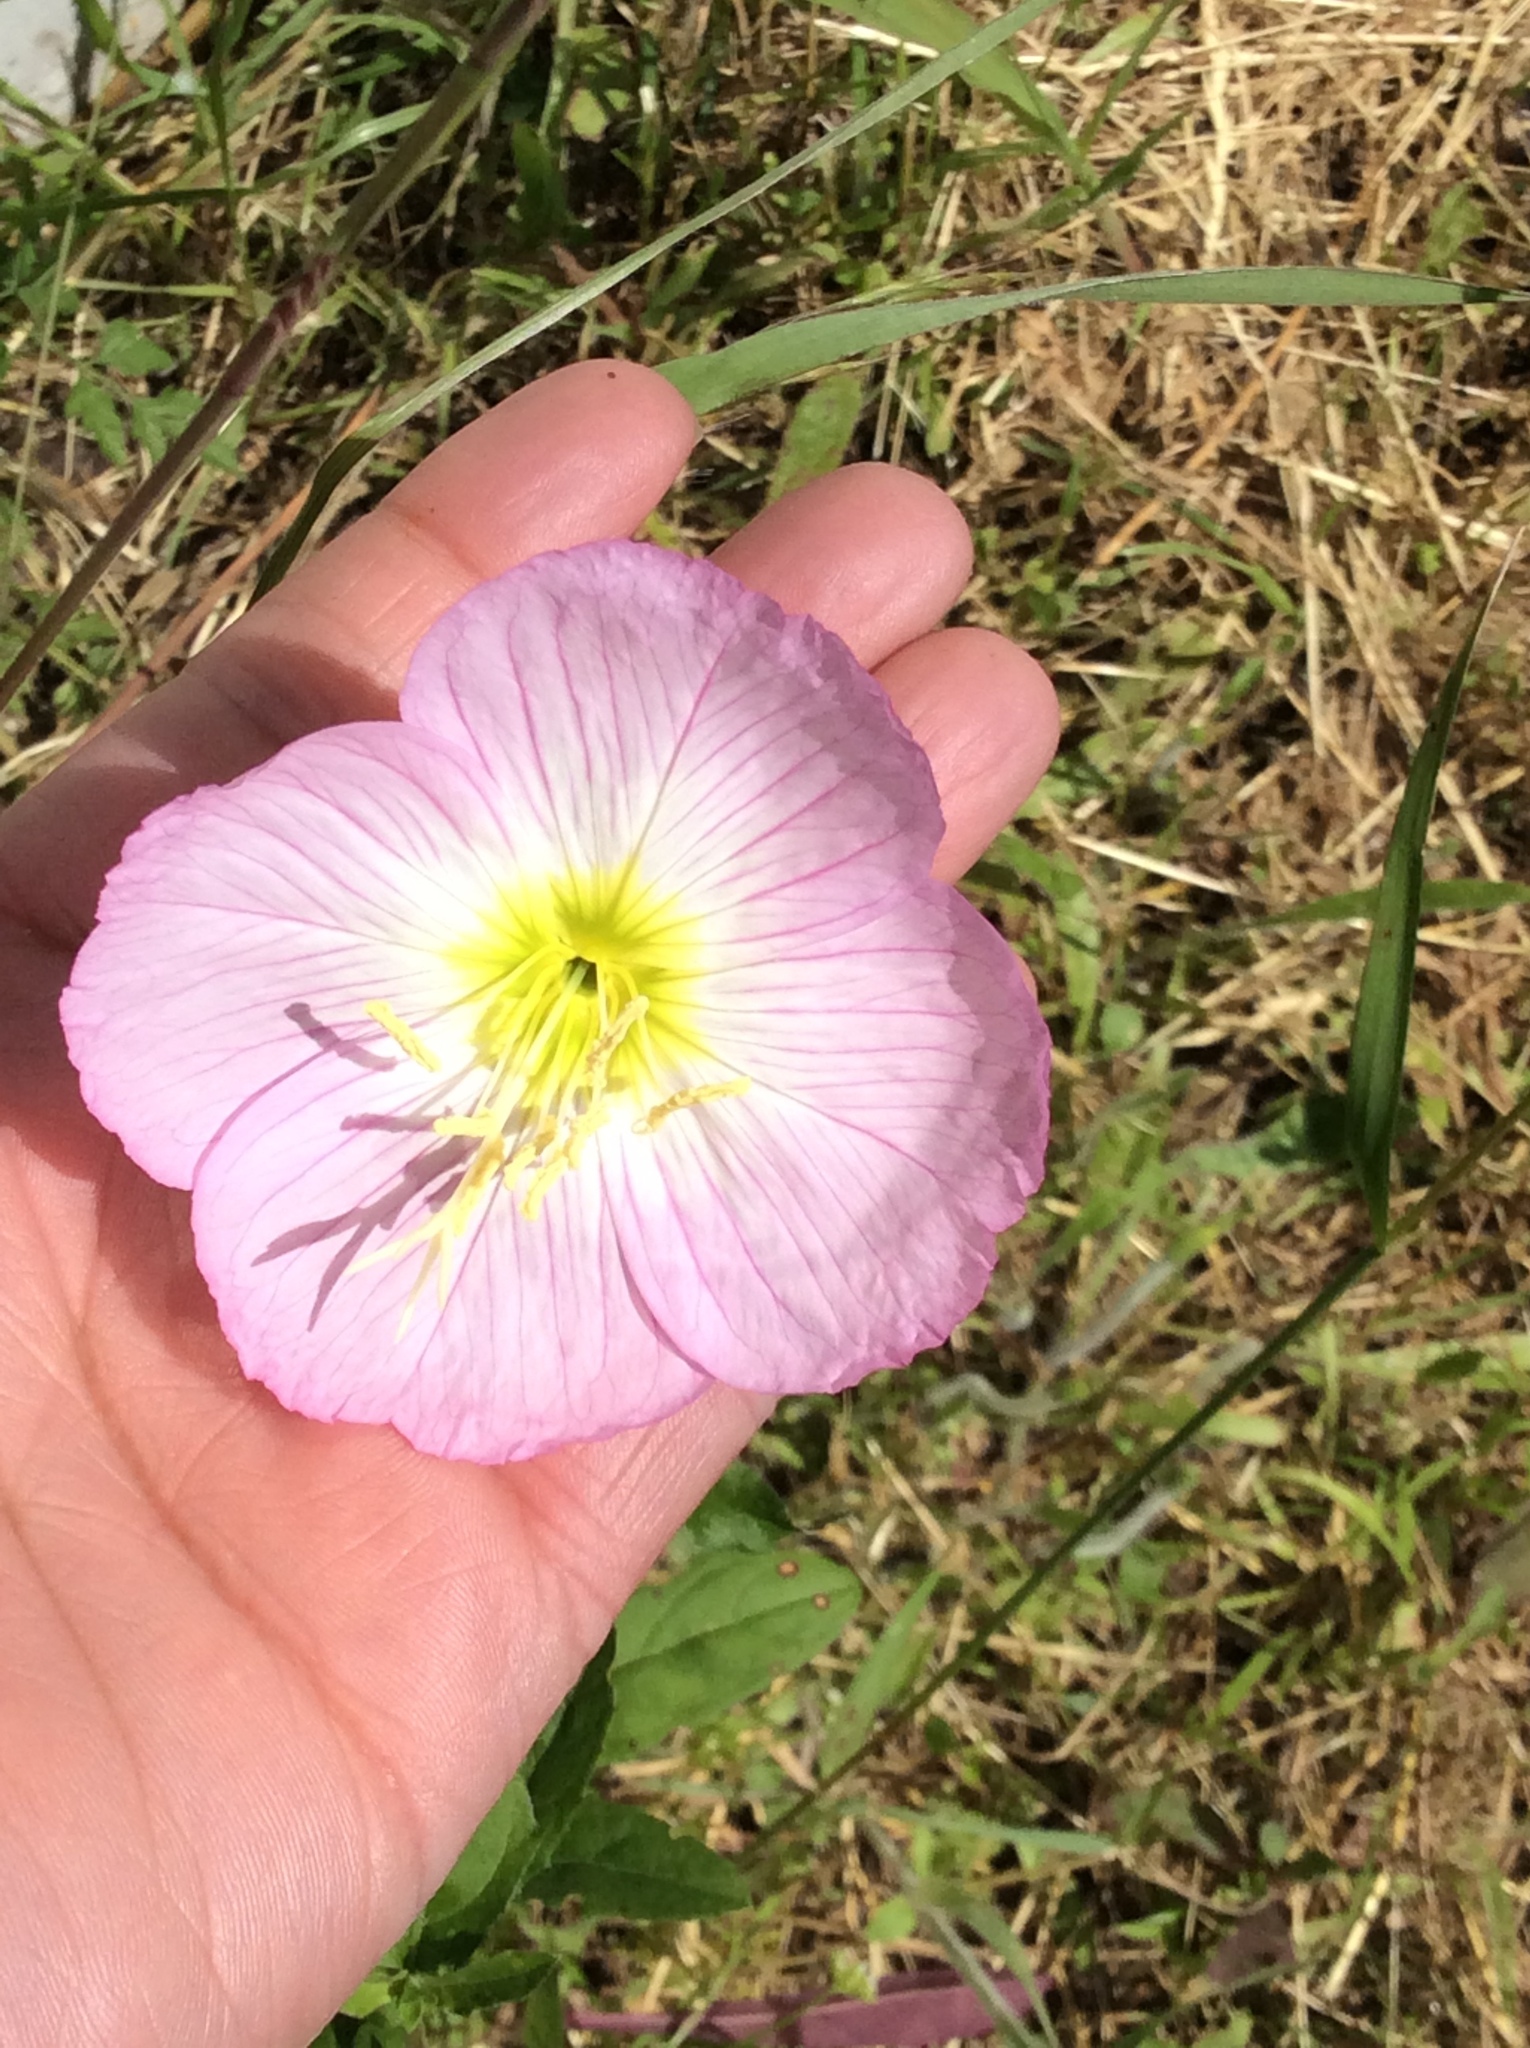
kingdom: Plantae
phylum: Tracheophyta
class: Magnoliopsida
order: Myrtales
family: Onagraceae
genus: Oenothera
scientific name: Oenothera speciosa
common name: White evening-primrose
